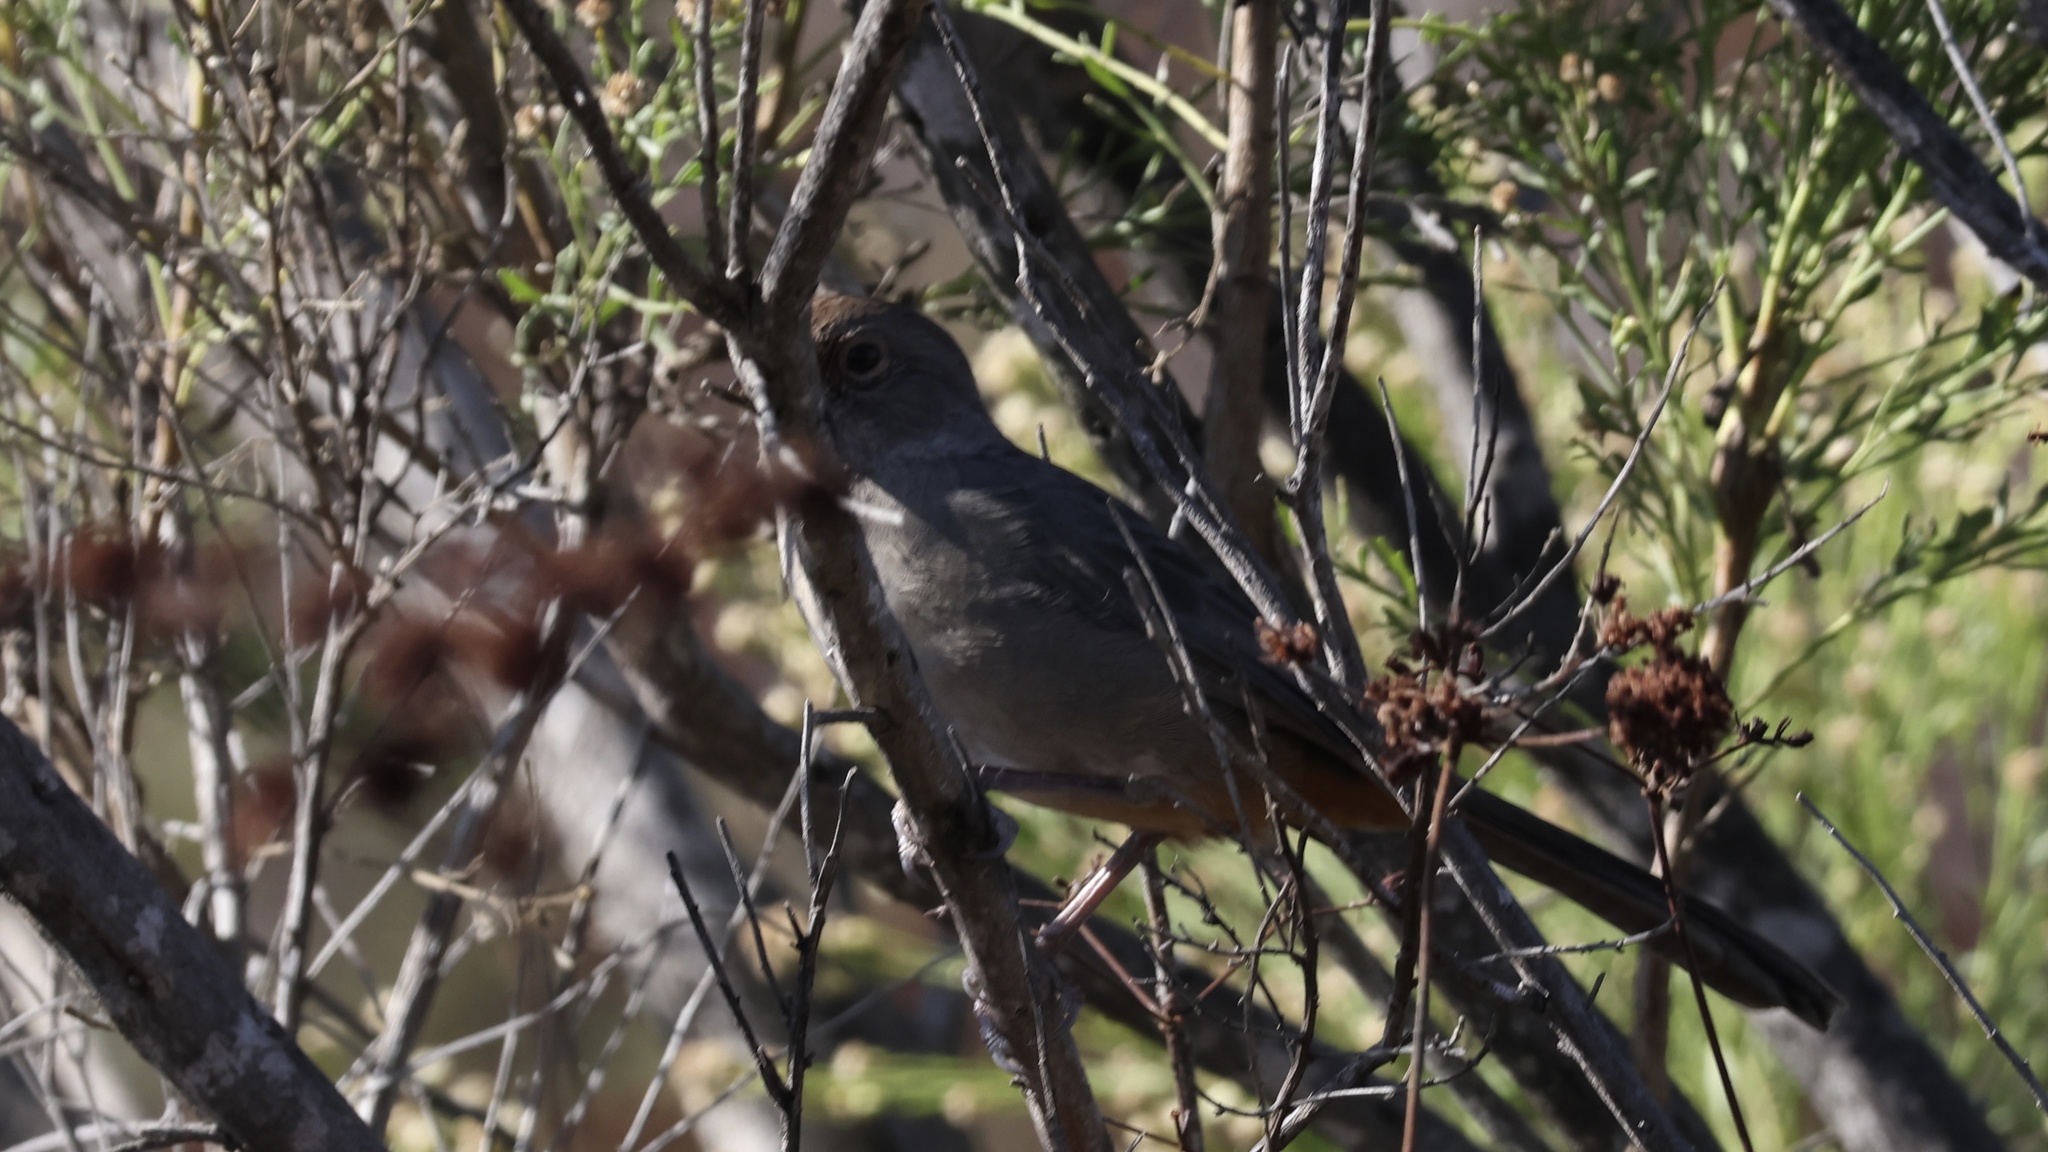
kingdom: Animalia
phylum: Chordata
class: Aves
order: Passeriformes
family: Passerellidae
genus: Melozone
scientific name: Melozone crissalis
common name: California towhee
